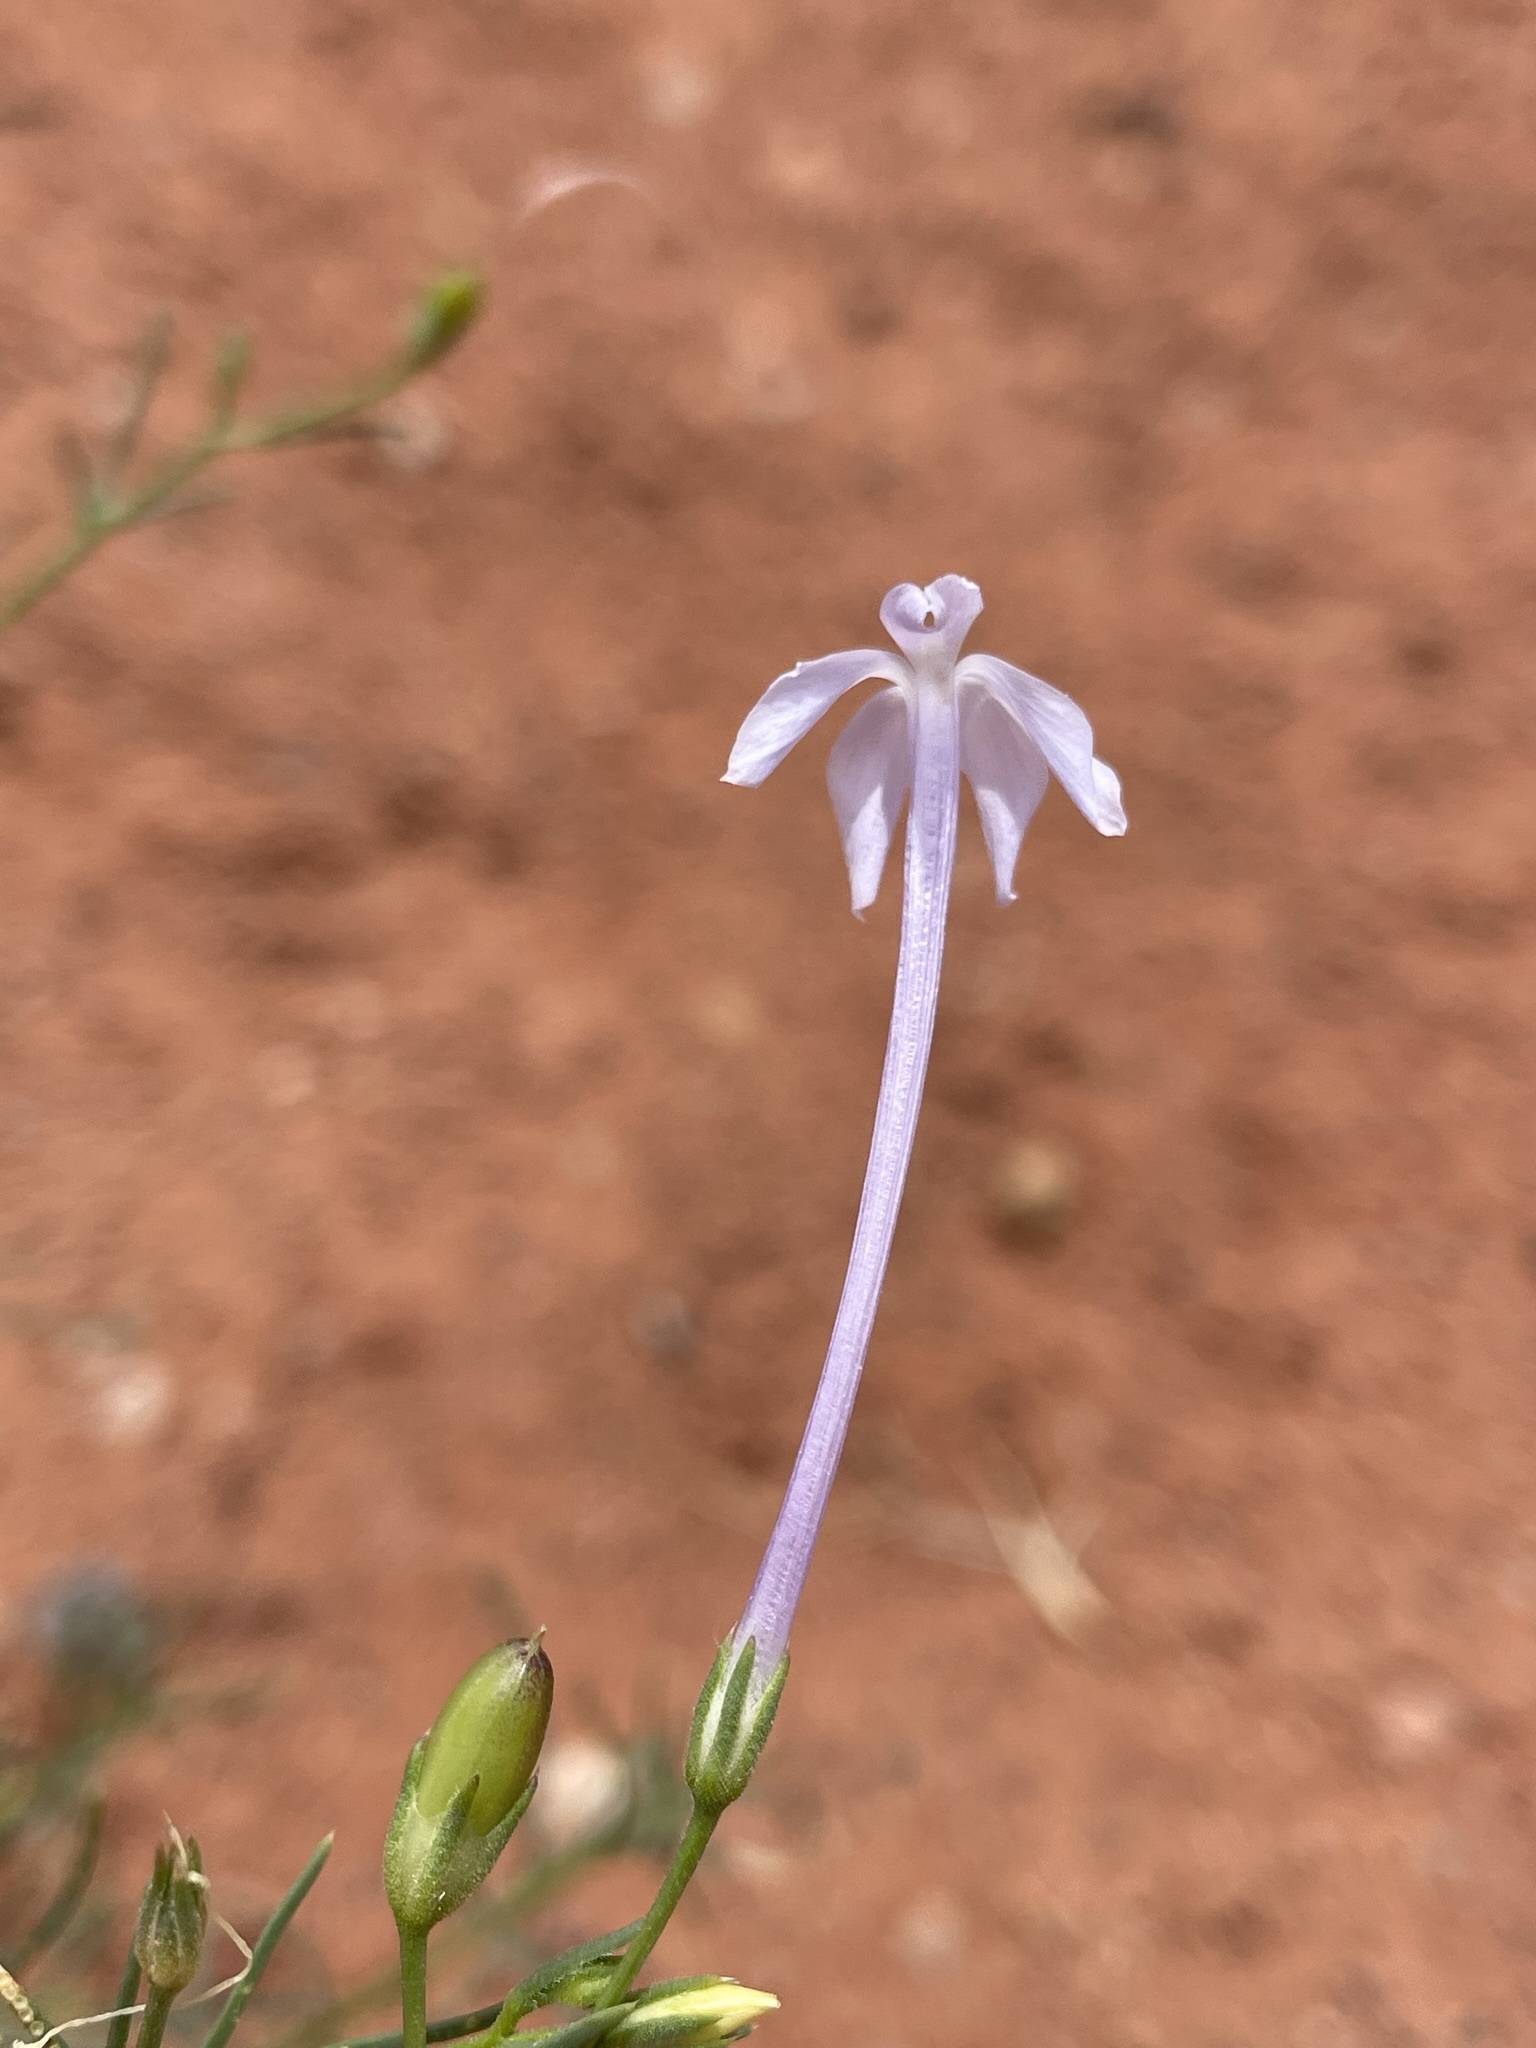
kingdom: Plantae
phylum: Tracheophyta
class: Magnoliopsida
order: Ericales
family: Polemoniaceae
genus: Ipomopsis
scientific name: Ipomopsis longiflora
